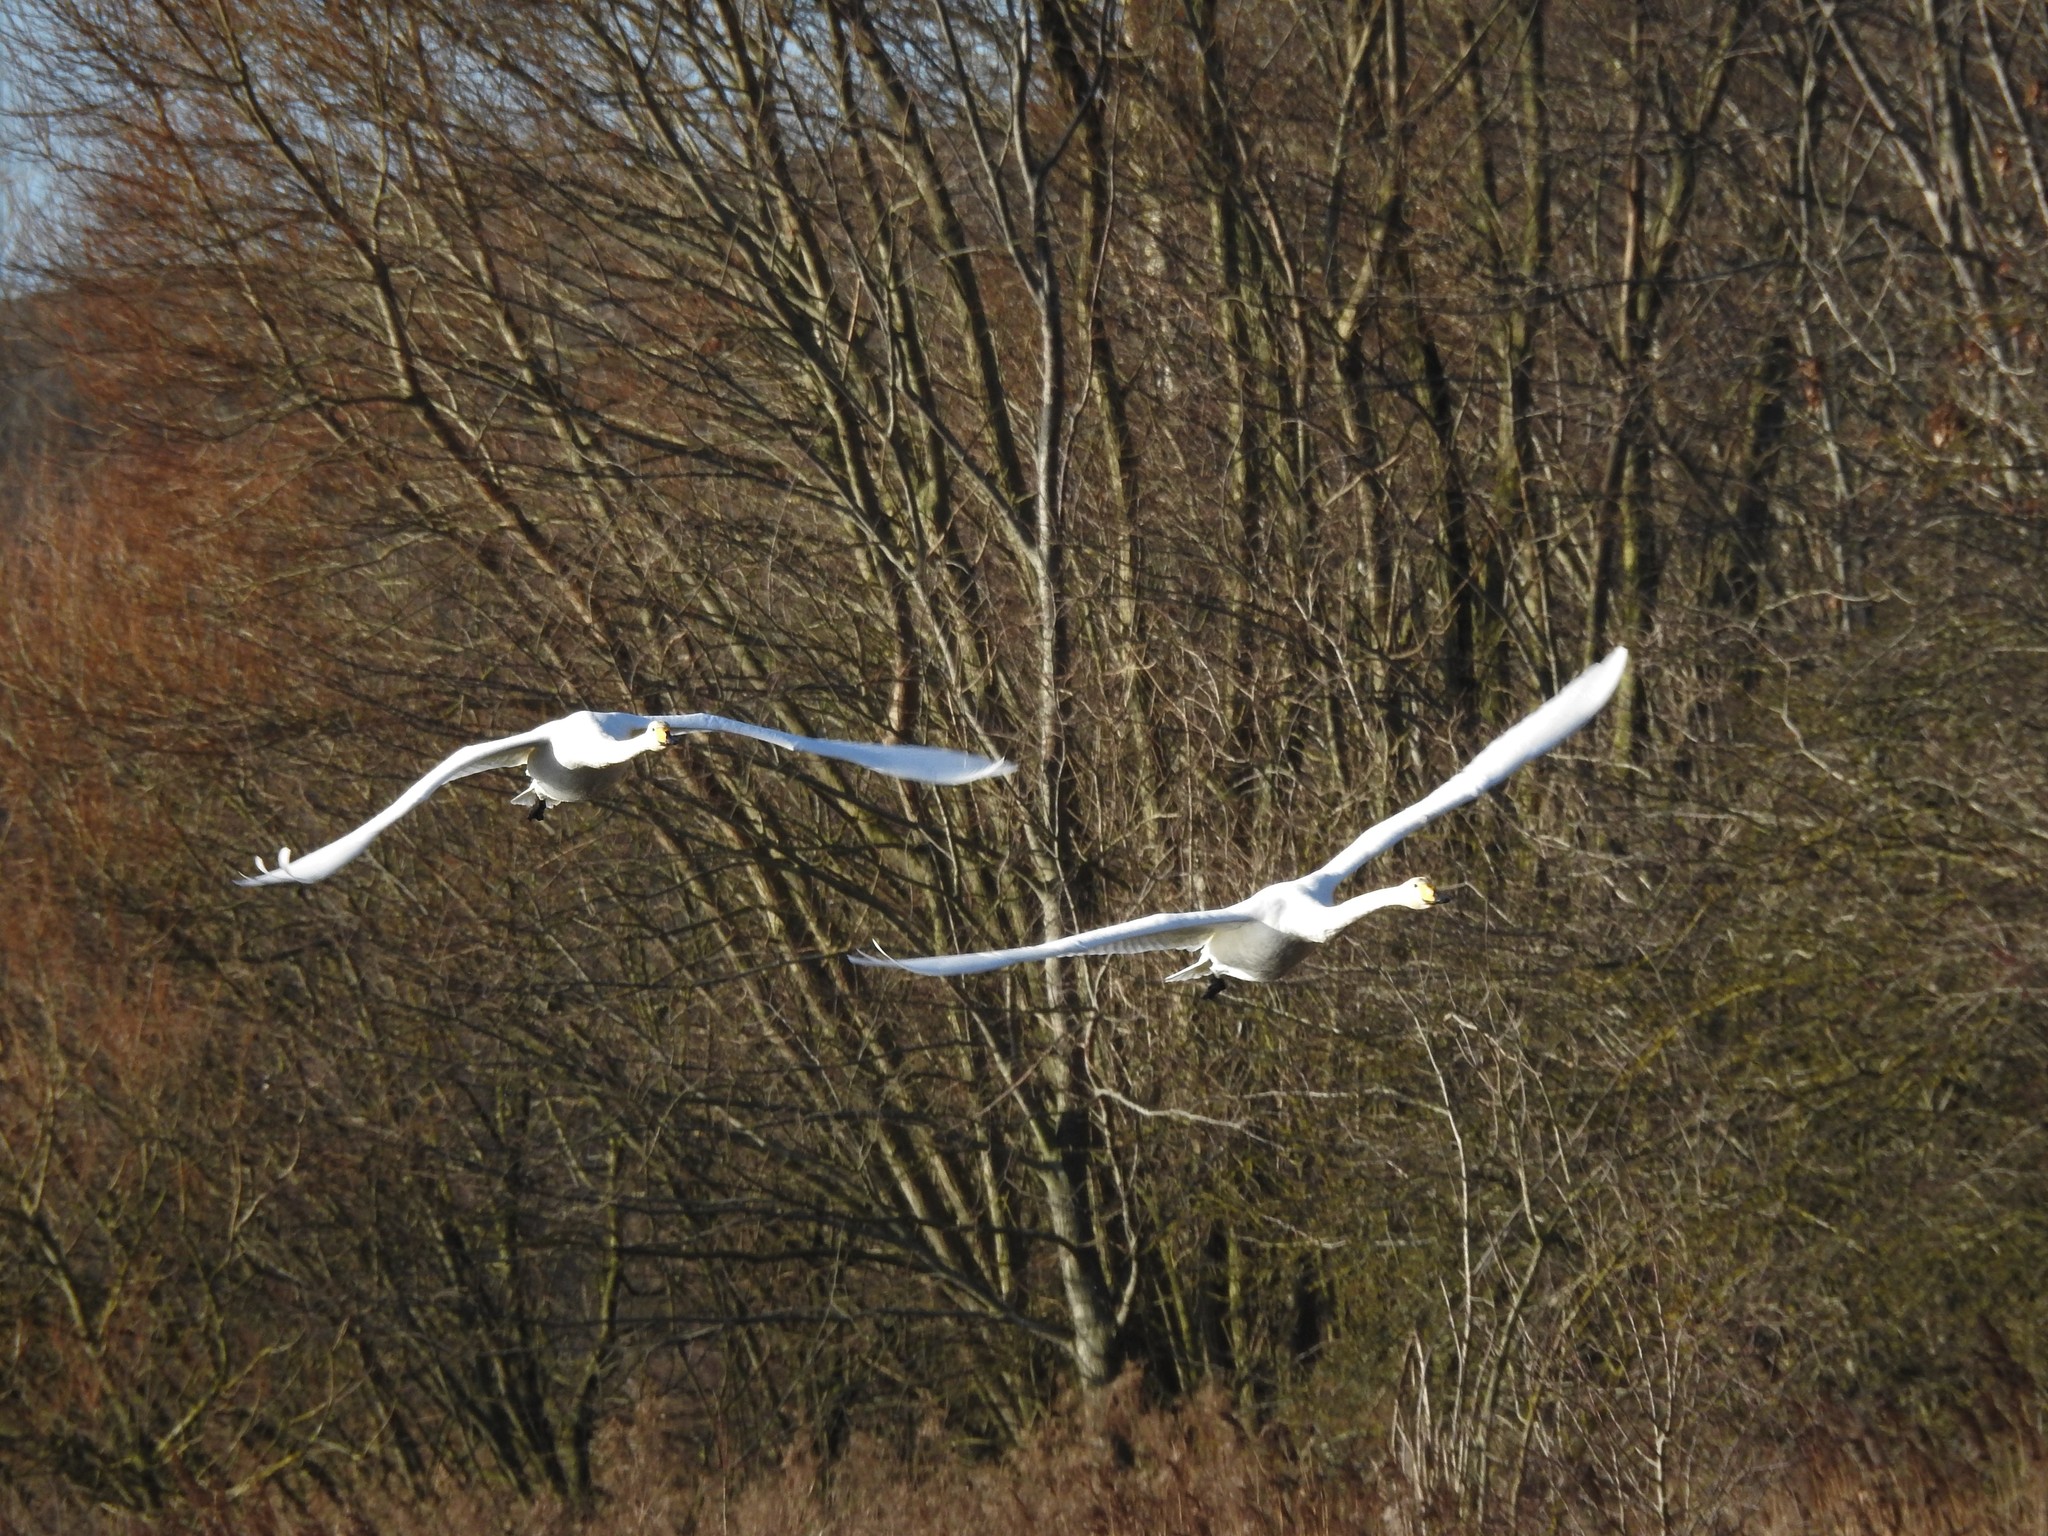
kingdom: Animalia
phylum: Chordata
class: Aves
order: Anseriformes
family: Anatidae
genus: Cygnus
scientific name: Cygnus cygnus
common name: Whooper swan
